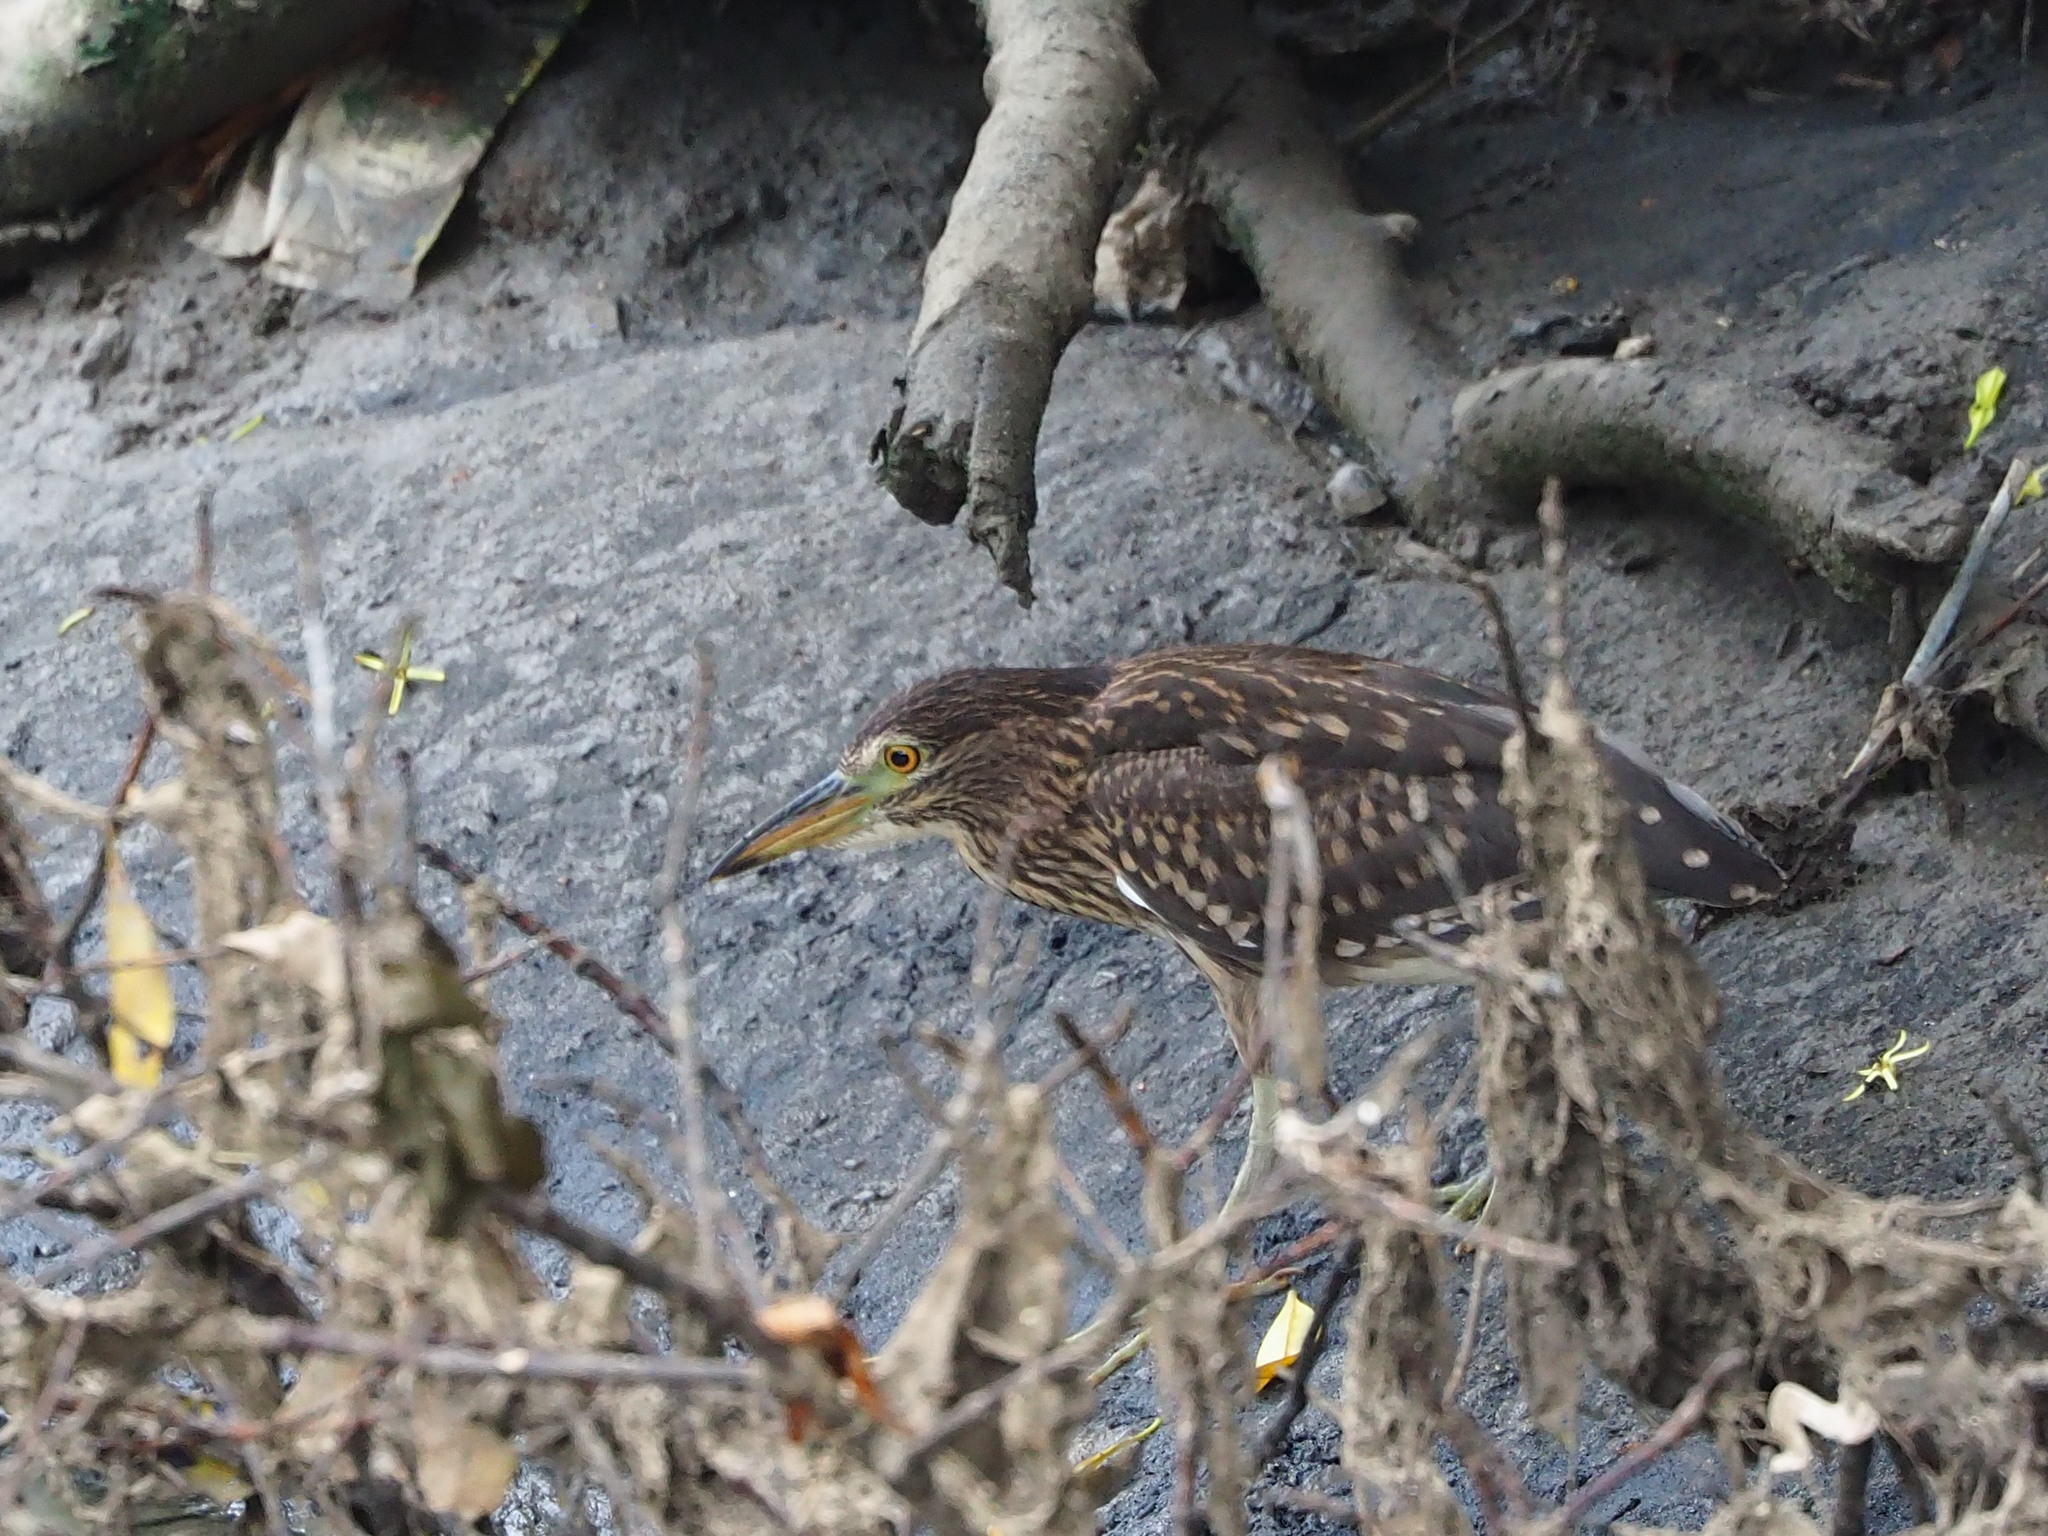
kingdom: Animalia
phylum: Chordata
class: Aves
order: Pelecaniformes
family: Ardeidae
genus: Nycticorax
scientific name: Nycticorax nycticorax
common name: Black-crowned night heron
